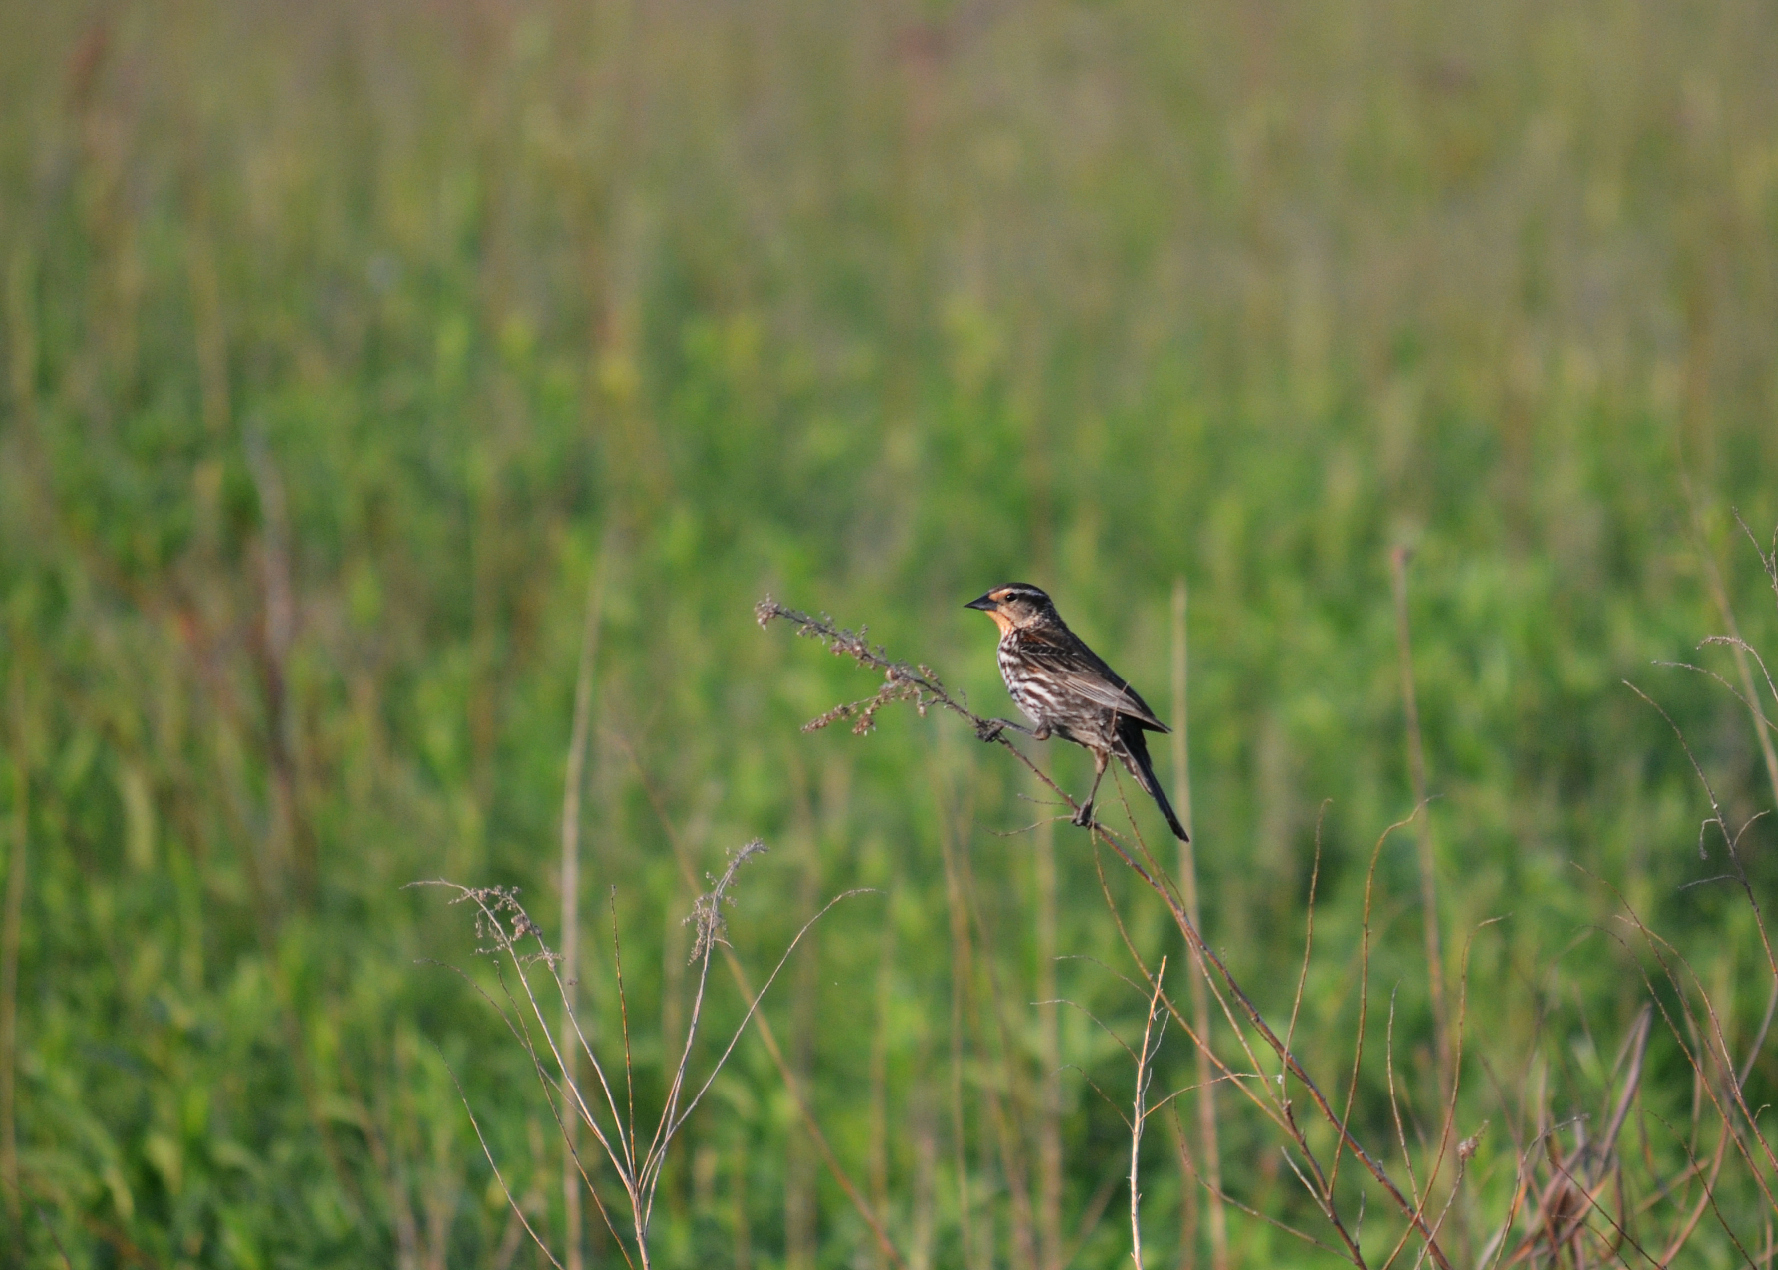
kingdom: Animalia
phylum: Chordata
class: Aves
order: Passeriformes
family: Icteridae
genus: Agelaius
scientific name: Agelaius phoeniceus
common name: Red-winged blackbird
